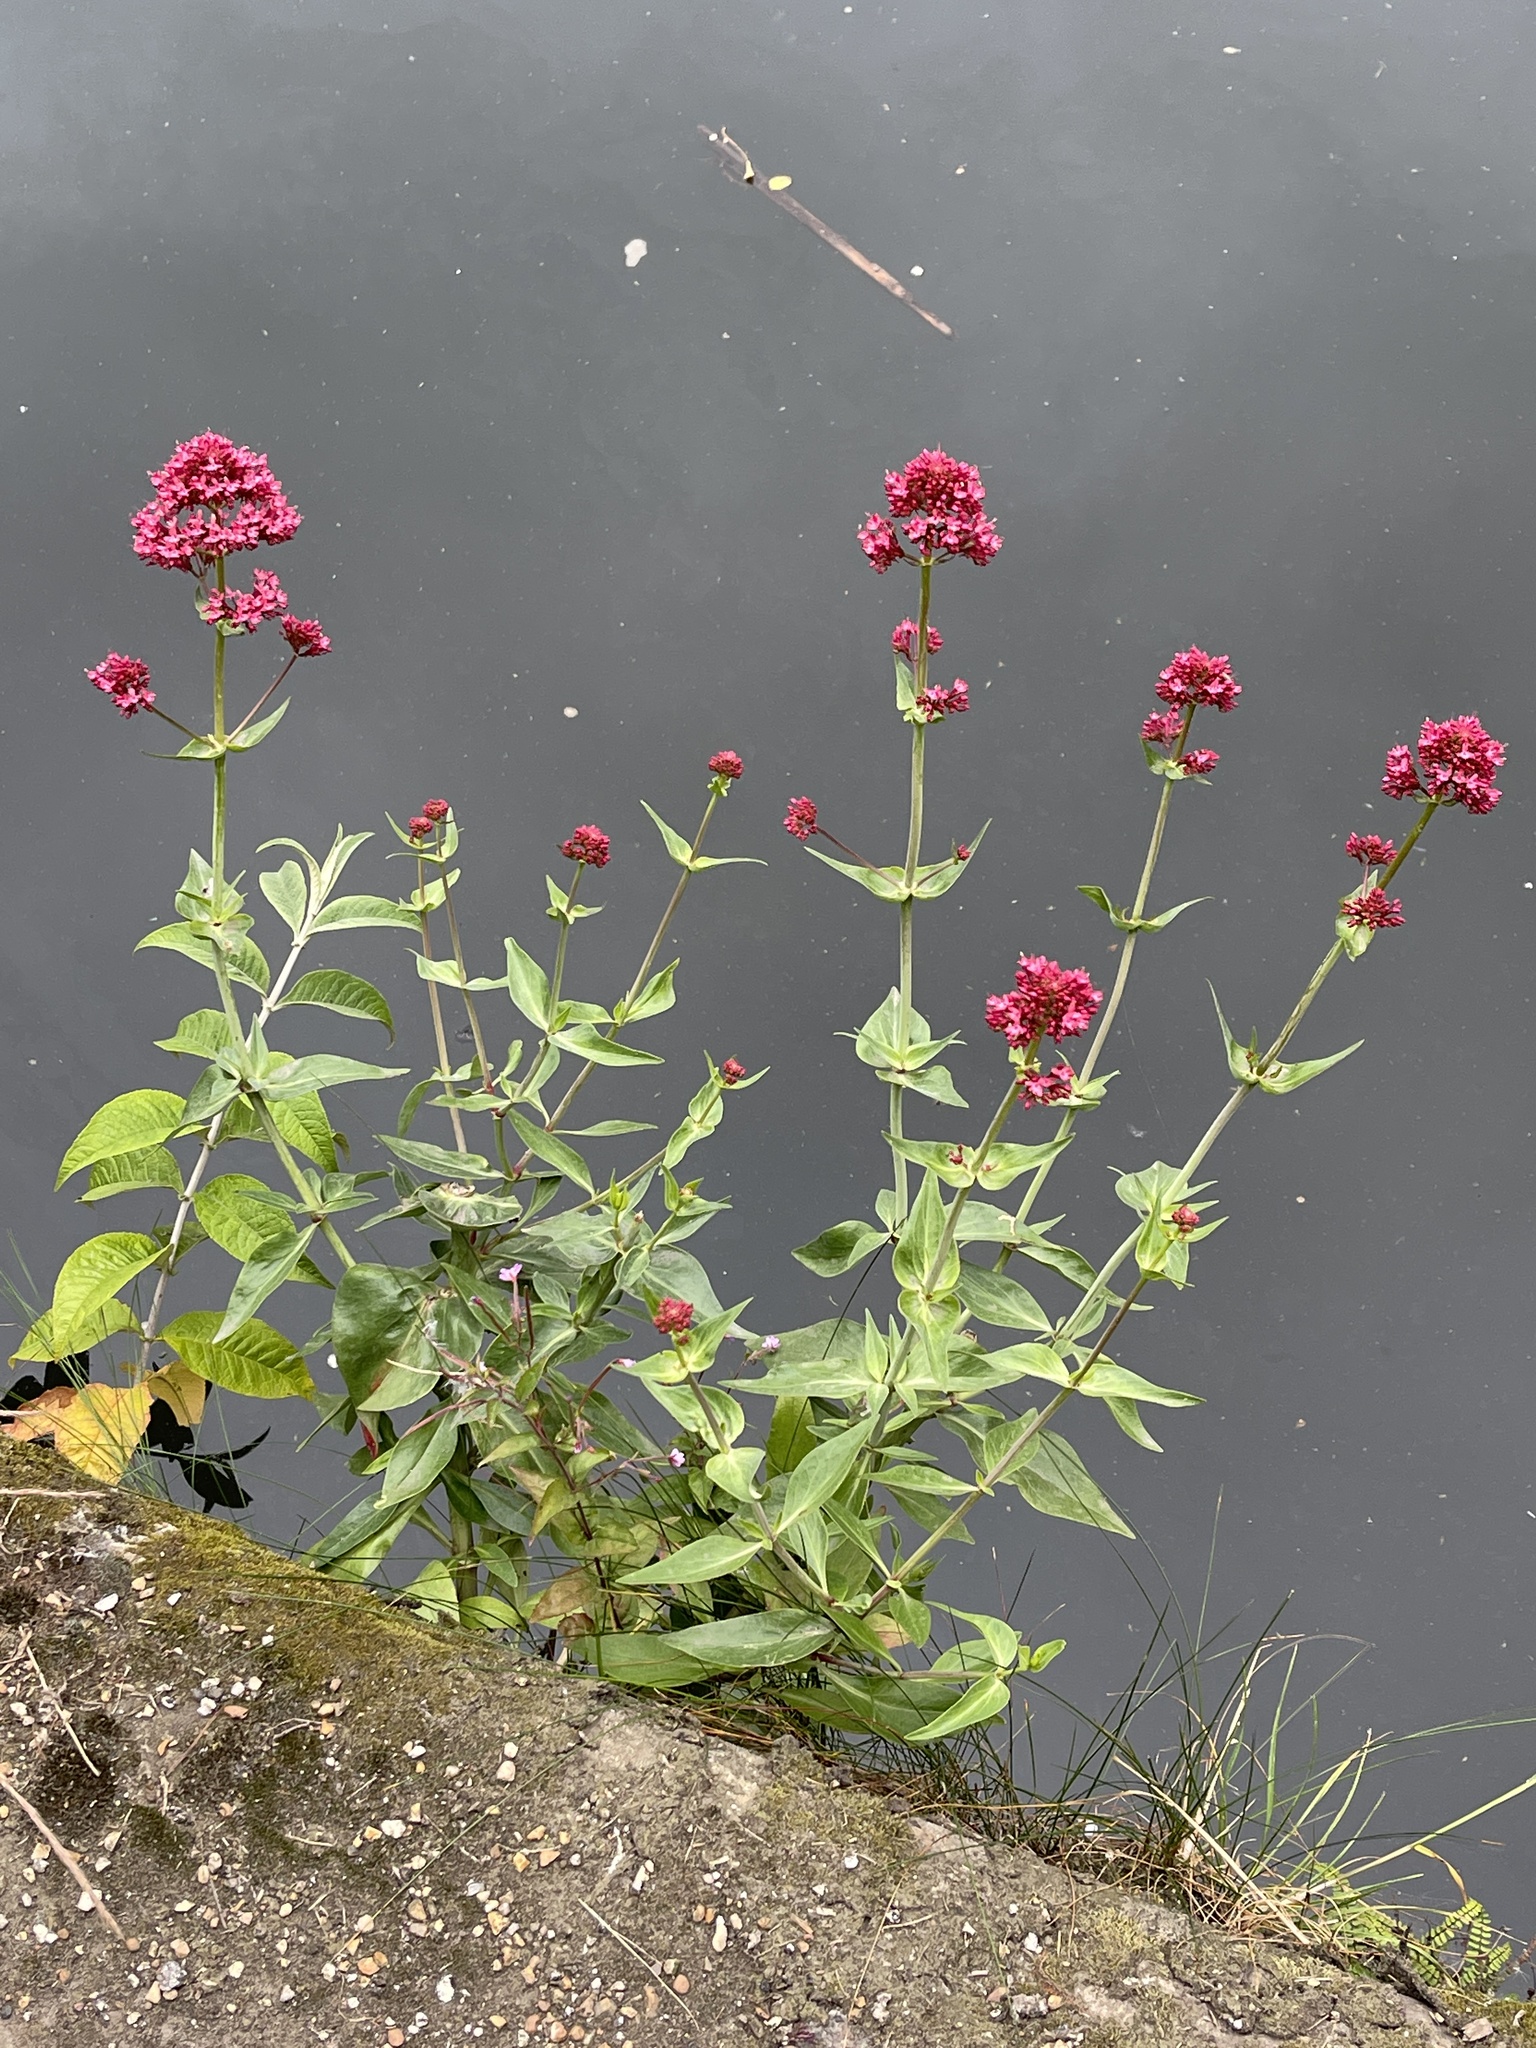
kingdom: Plantae
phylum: Tracheophyta
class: Magnoliopsida
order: Dipsacales
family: Caprifoliaceae
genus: Centranthus
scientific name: Centranthus ruber
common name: Red valerian
